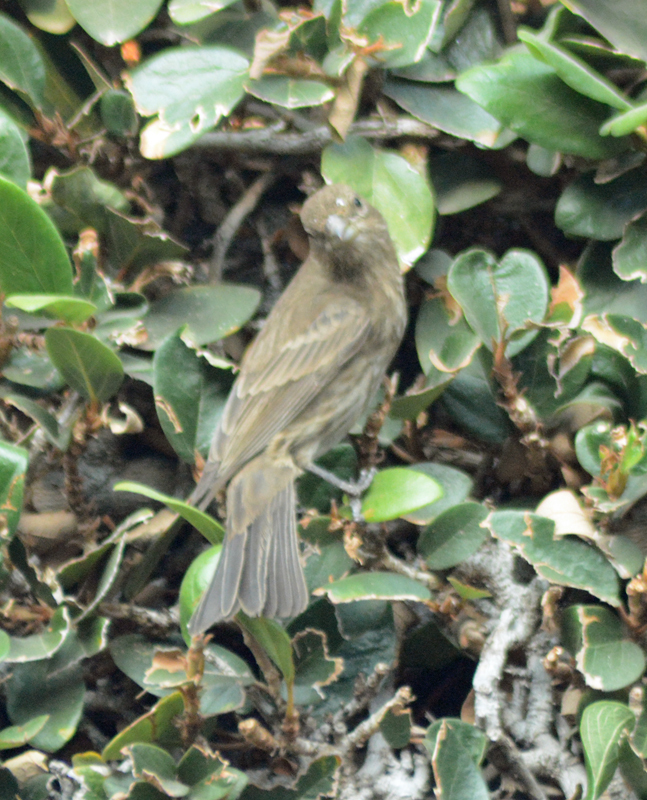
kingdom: Animalia
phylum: Chordata
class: Aves
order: Passeriformes
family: Fringillidae
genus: Haemorhous
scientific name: Haemorhous mexicanus
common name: House finch
